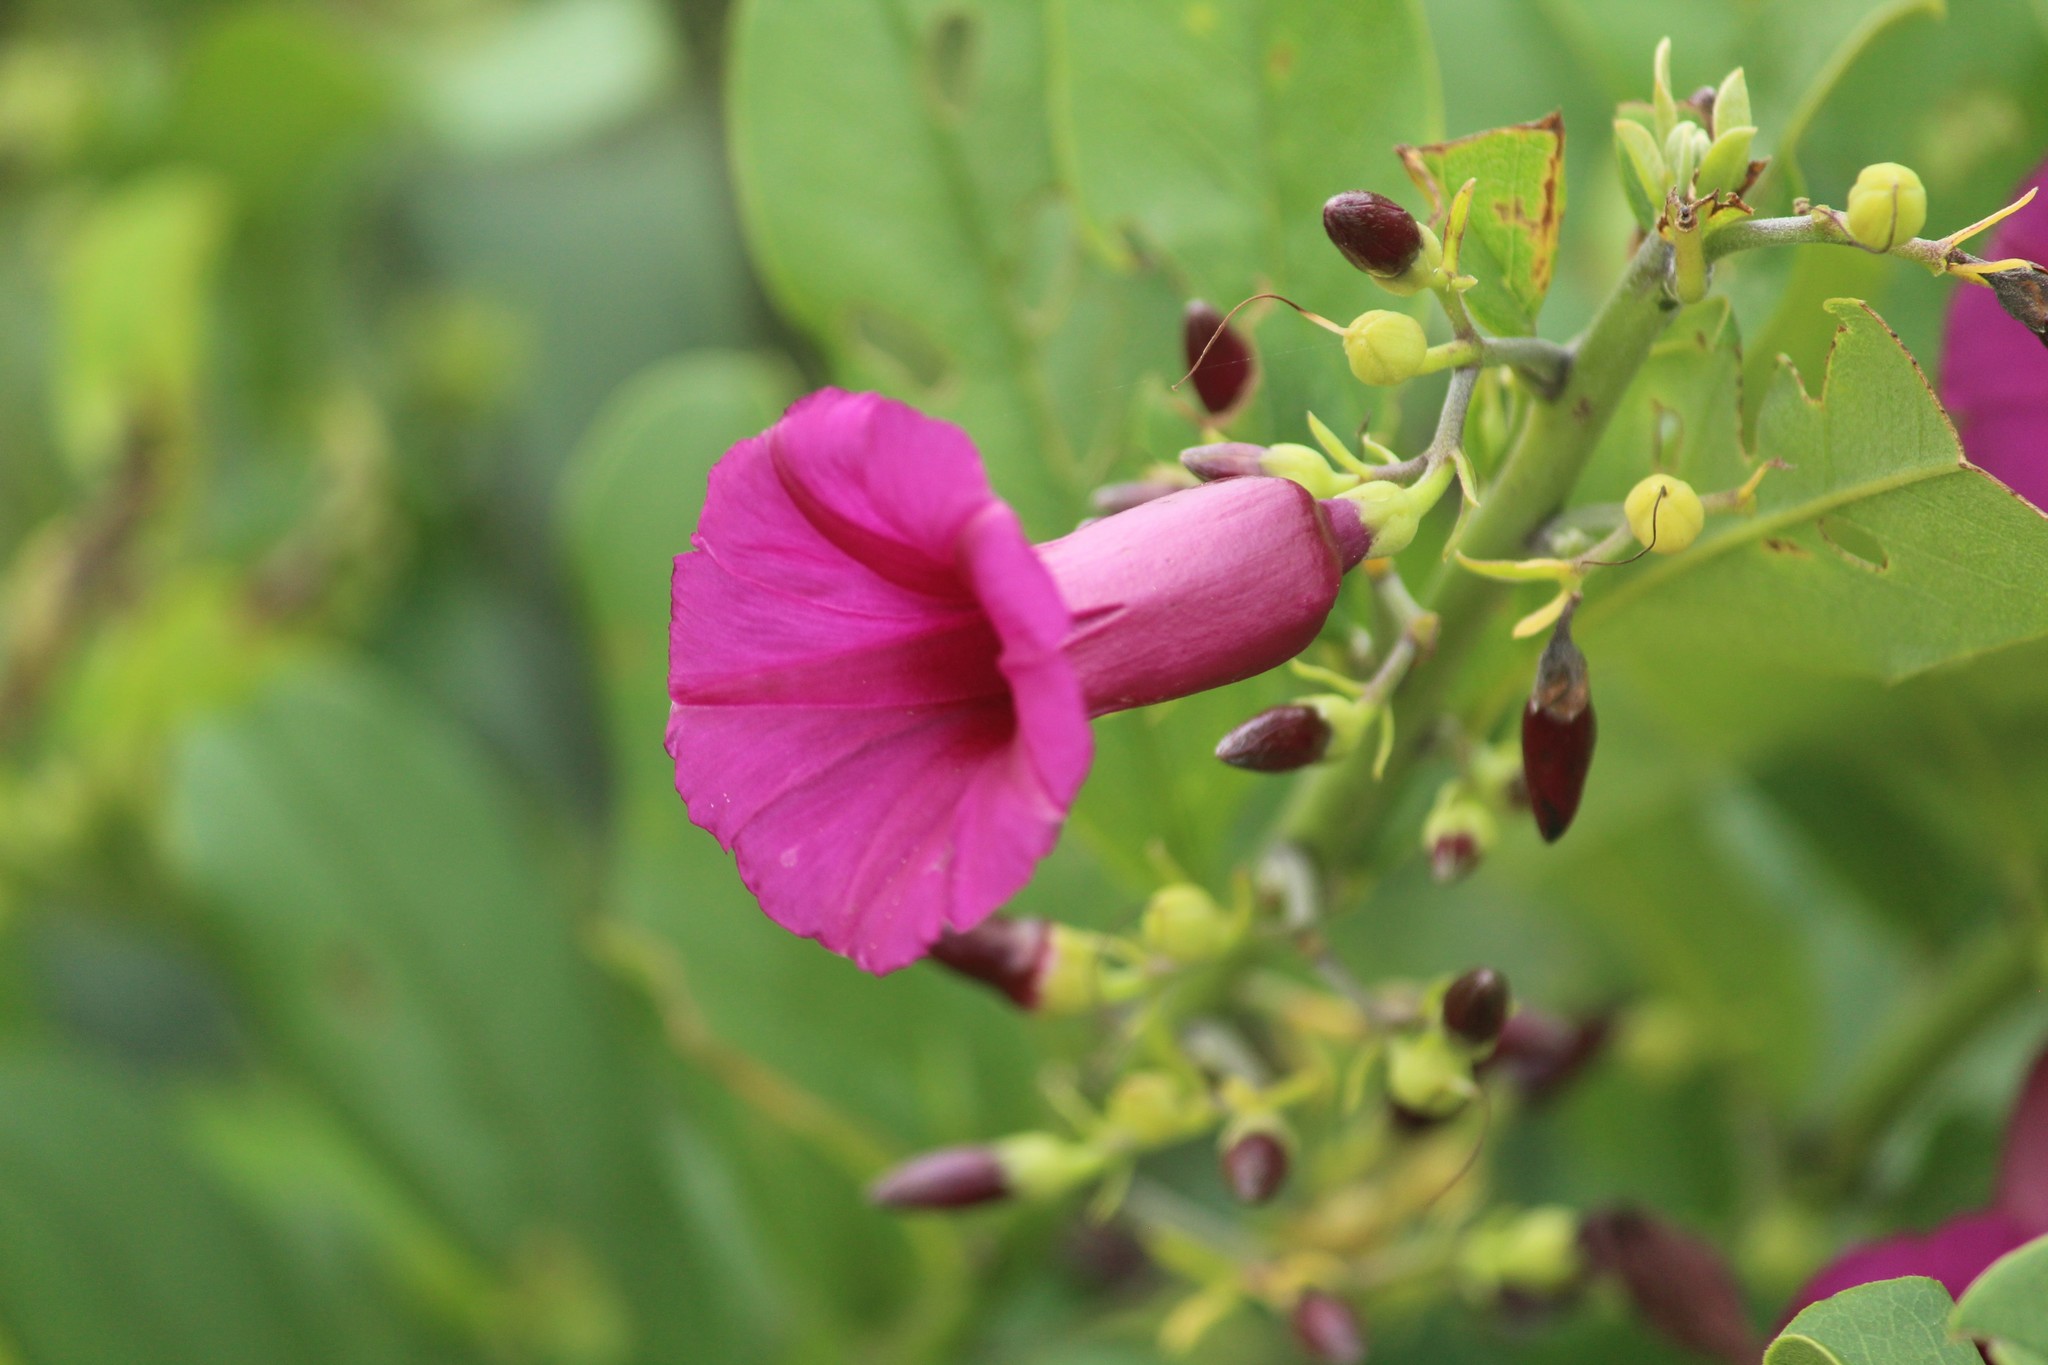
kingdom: Plantae
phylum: Tracheophyta
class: Magnoliopsida
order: Solanales
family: Convolvulaceae
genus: Argyreia
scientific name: Argyreia cuneata
